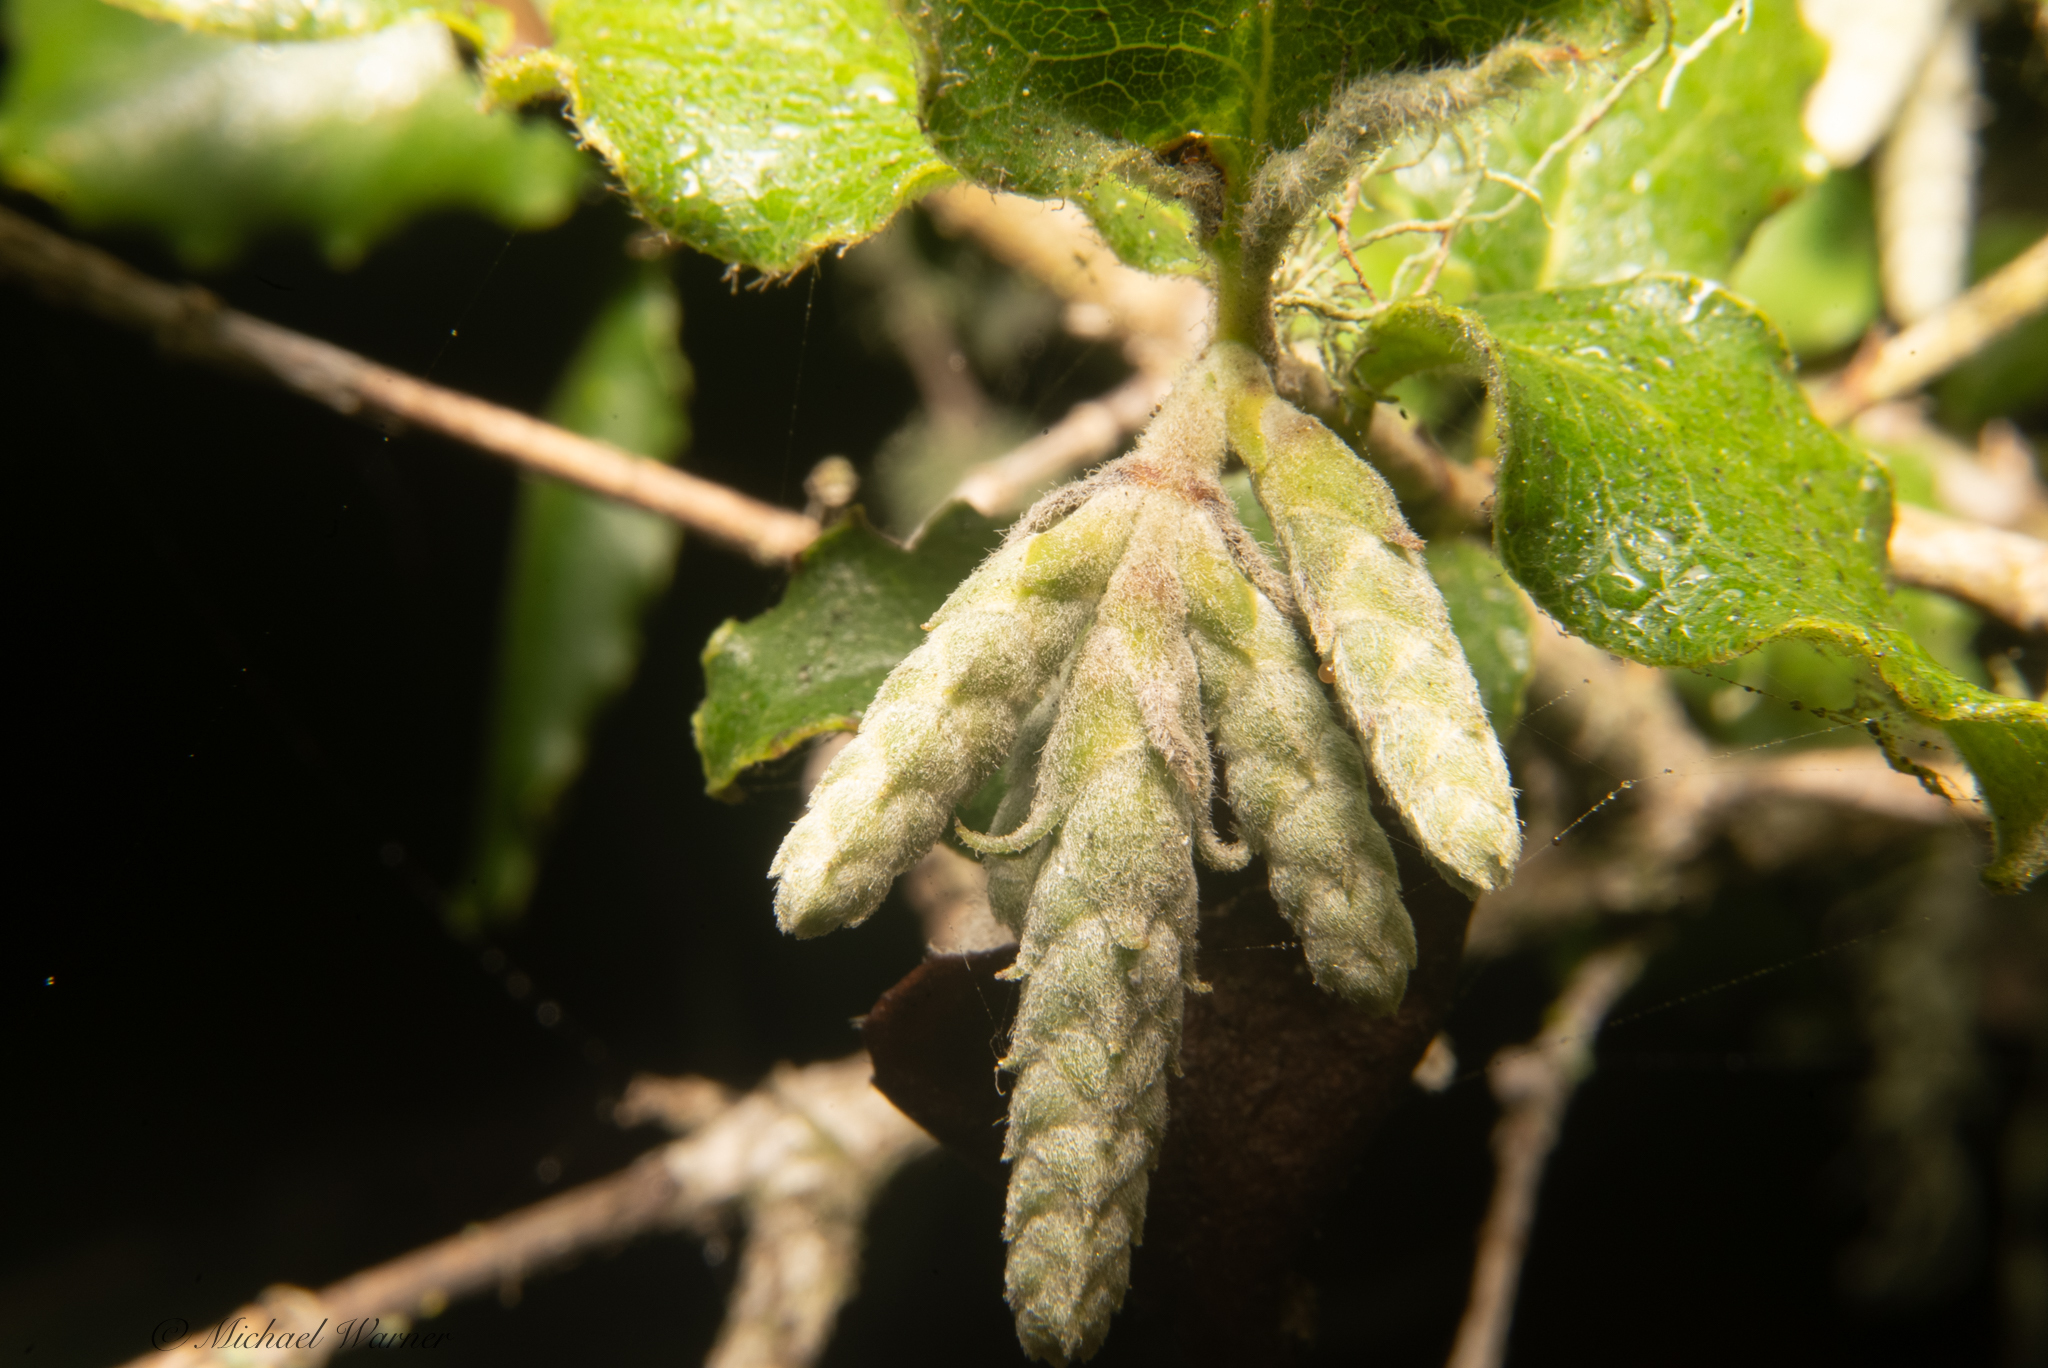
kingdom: Plantae
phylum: Tracheophyta
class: Magnoliopsida
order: Garryales
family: Garryaceae
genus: Garrya
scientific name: Garrya elliptica
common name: Silk-tassel
